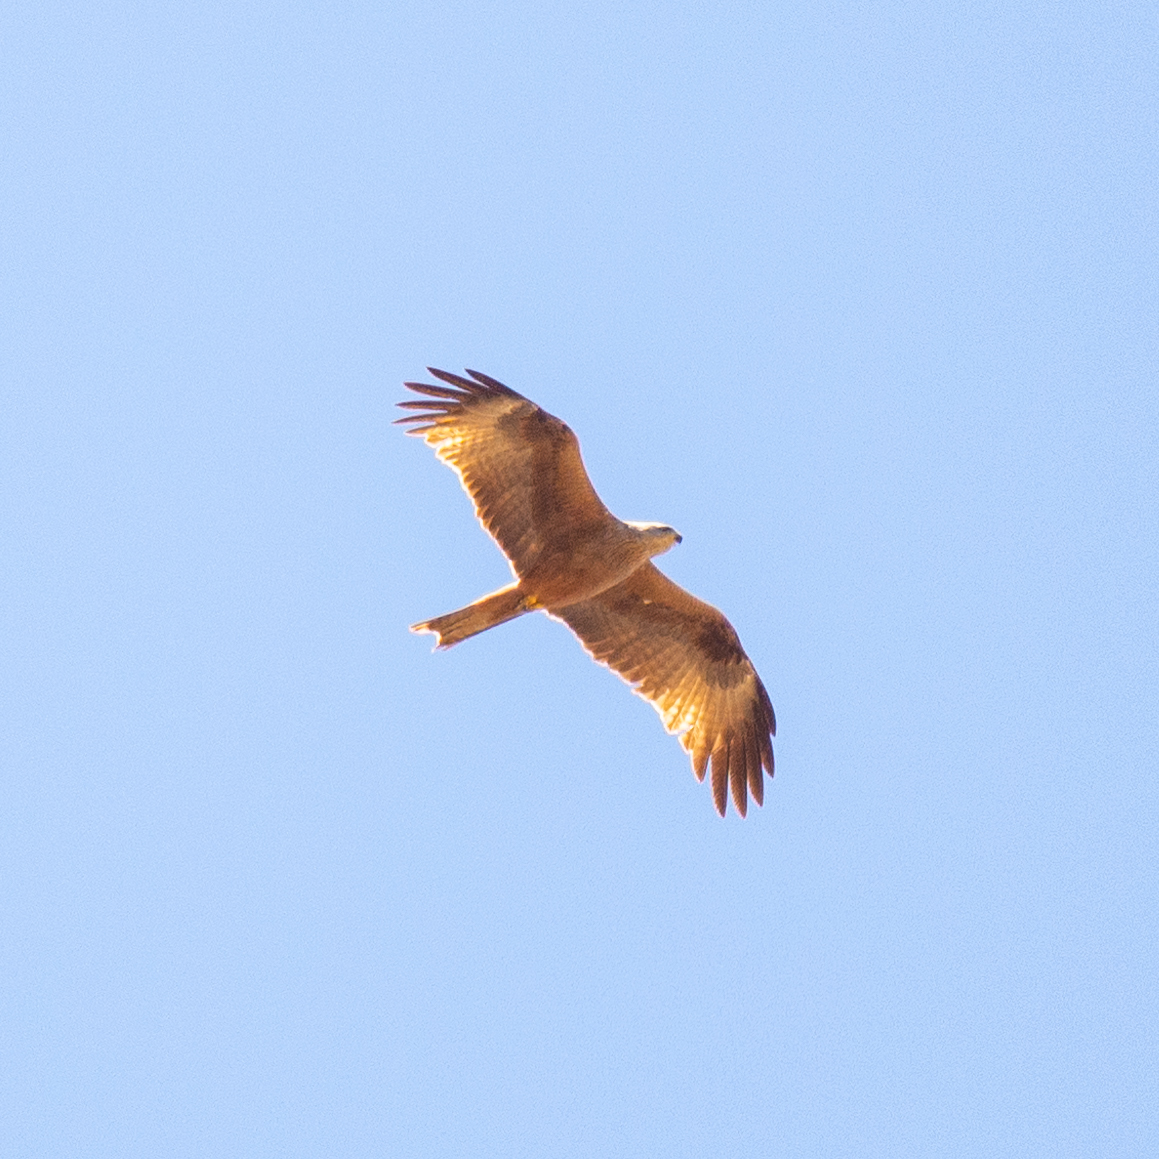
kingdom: Animalia
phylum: Chordata
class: Aves
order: Accipitriformes
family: Accipitridae
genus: Milvus
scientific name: Milvus migrans
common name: Black kite
